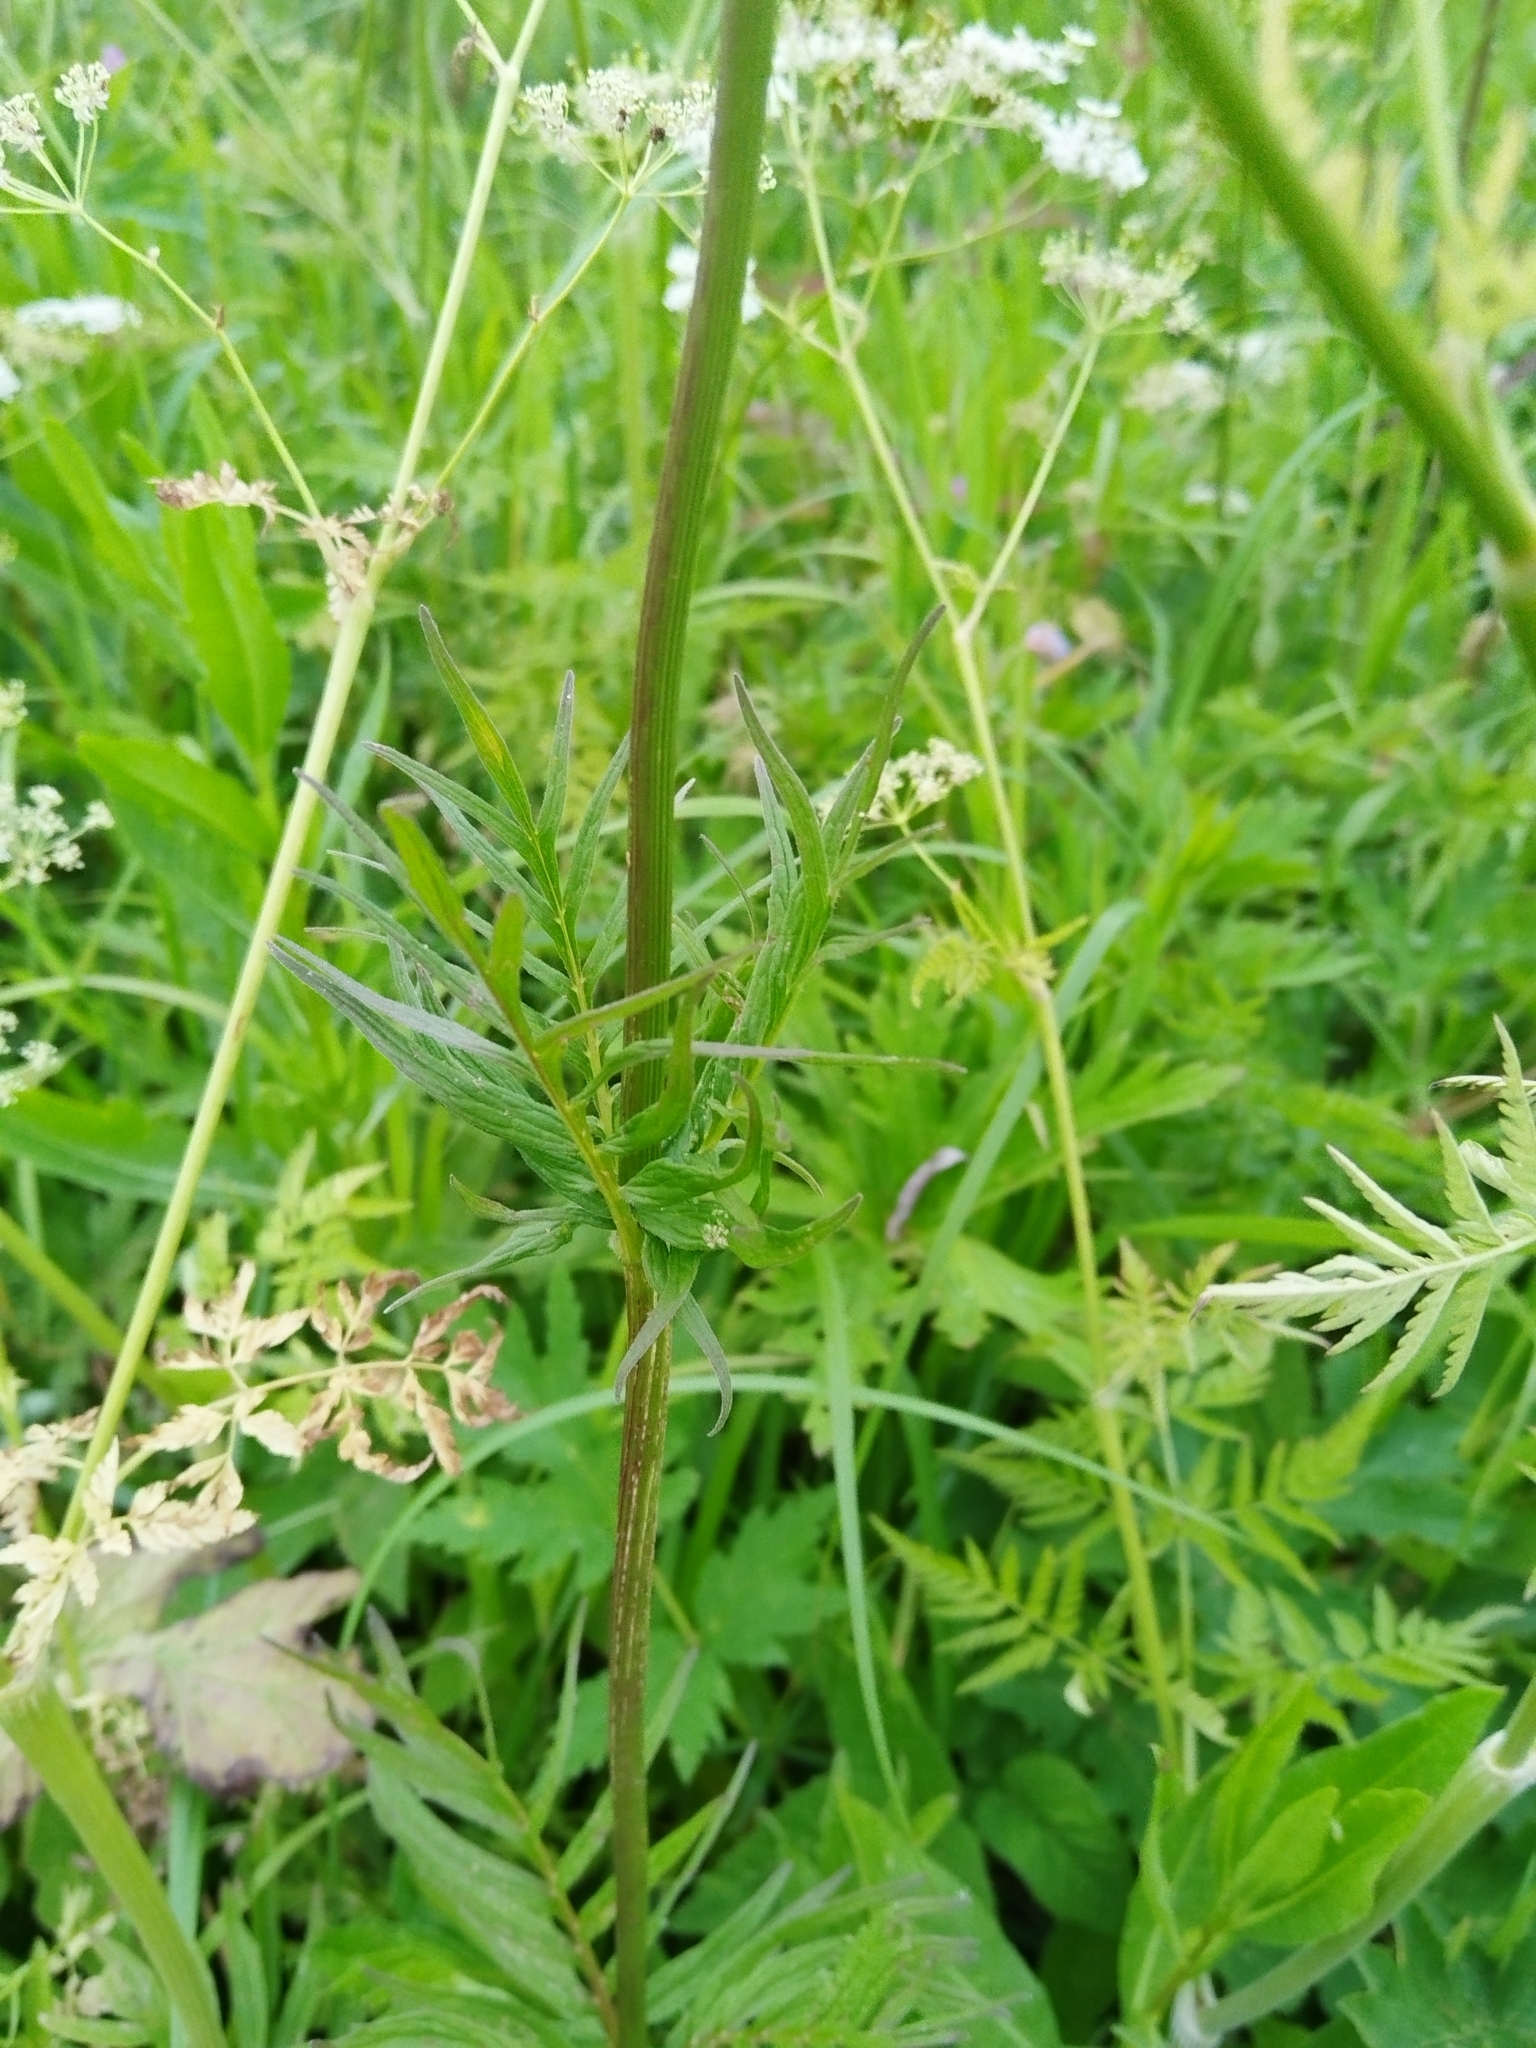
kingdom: Plantae
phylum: Tracheophyta
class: Magnoliopsida
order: Dipsacales
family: Caprifoliaceae
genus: Valeriana
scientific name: Valeriana officinalis
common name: Common valerian
